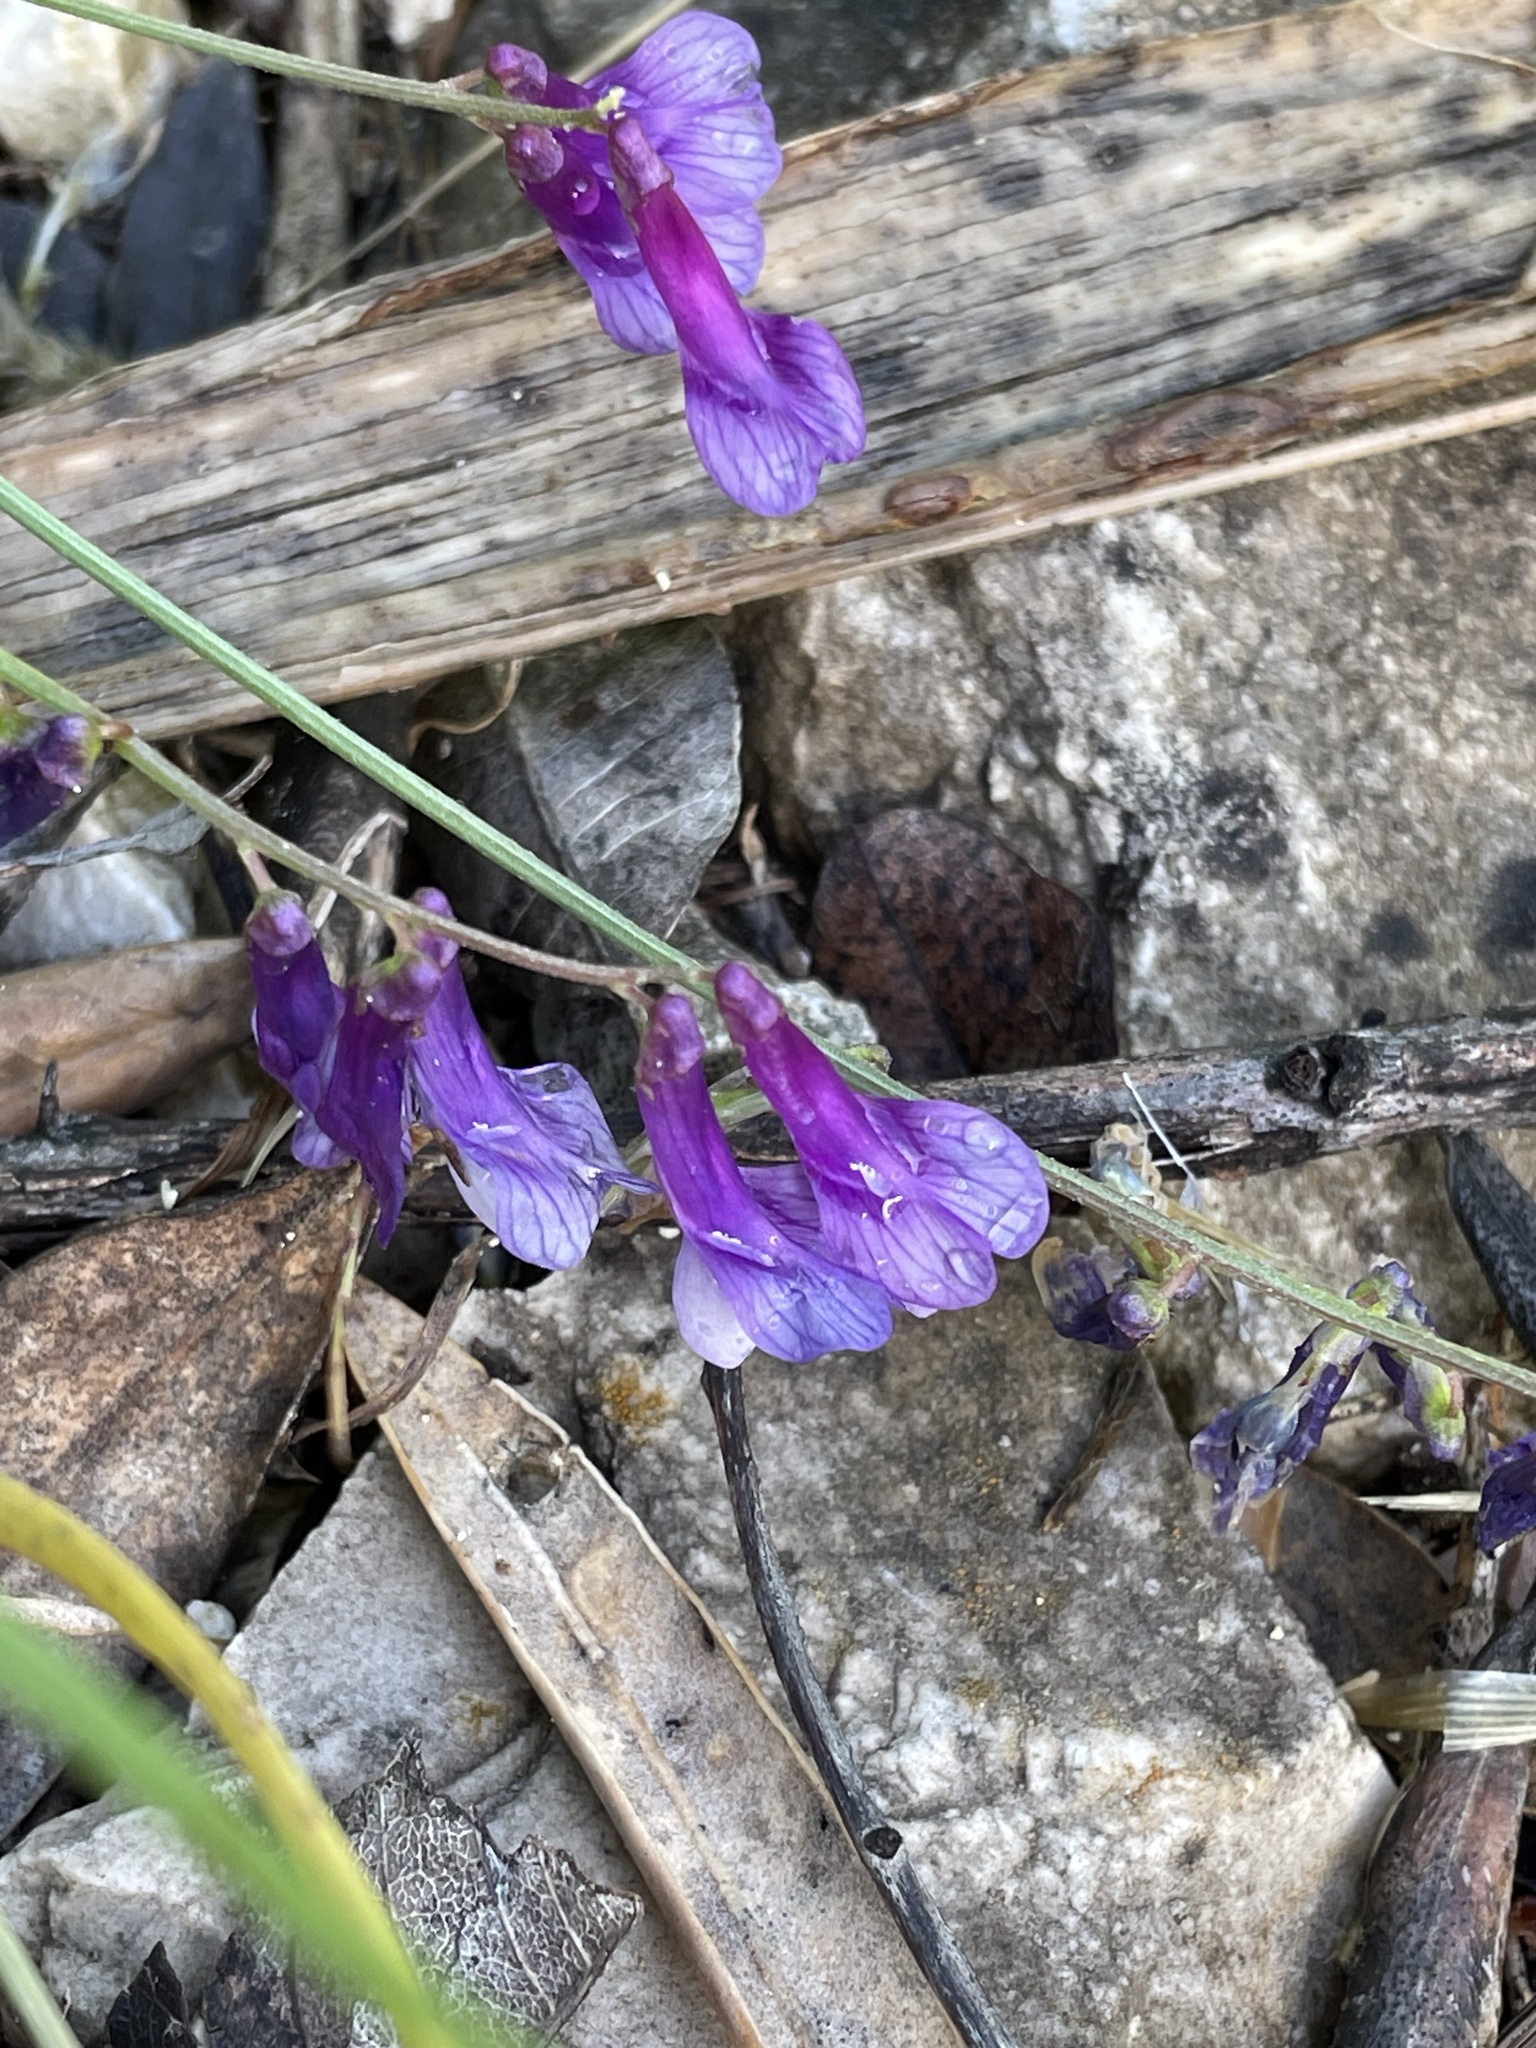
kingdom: Plantae
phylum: Tracheophyta
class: Magnoliopsida
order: Fabales
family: Fabaceae
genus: Vicia
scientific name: Vicia villosa
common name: Fodder vetch
